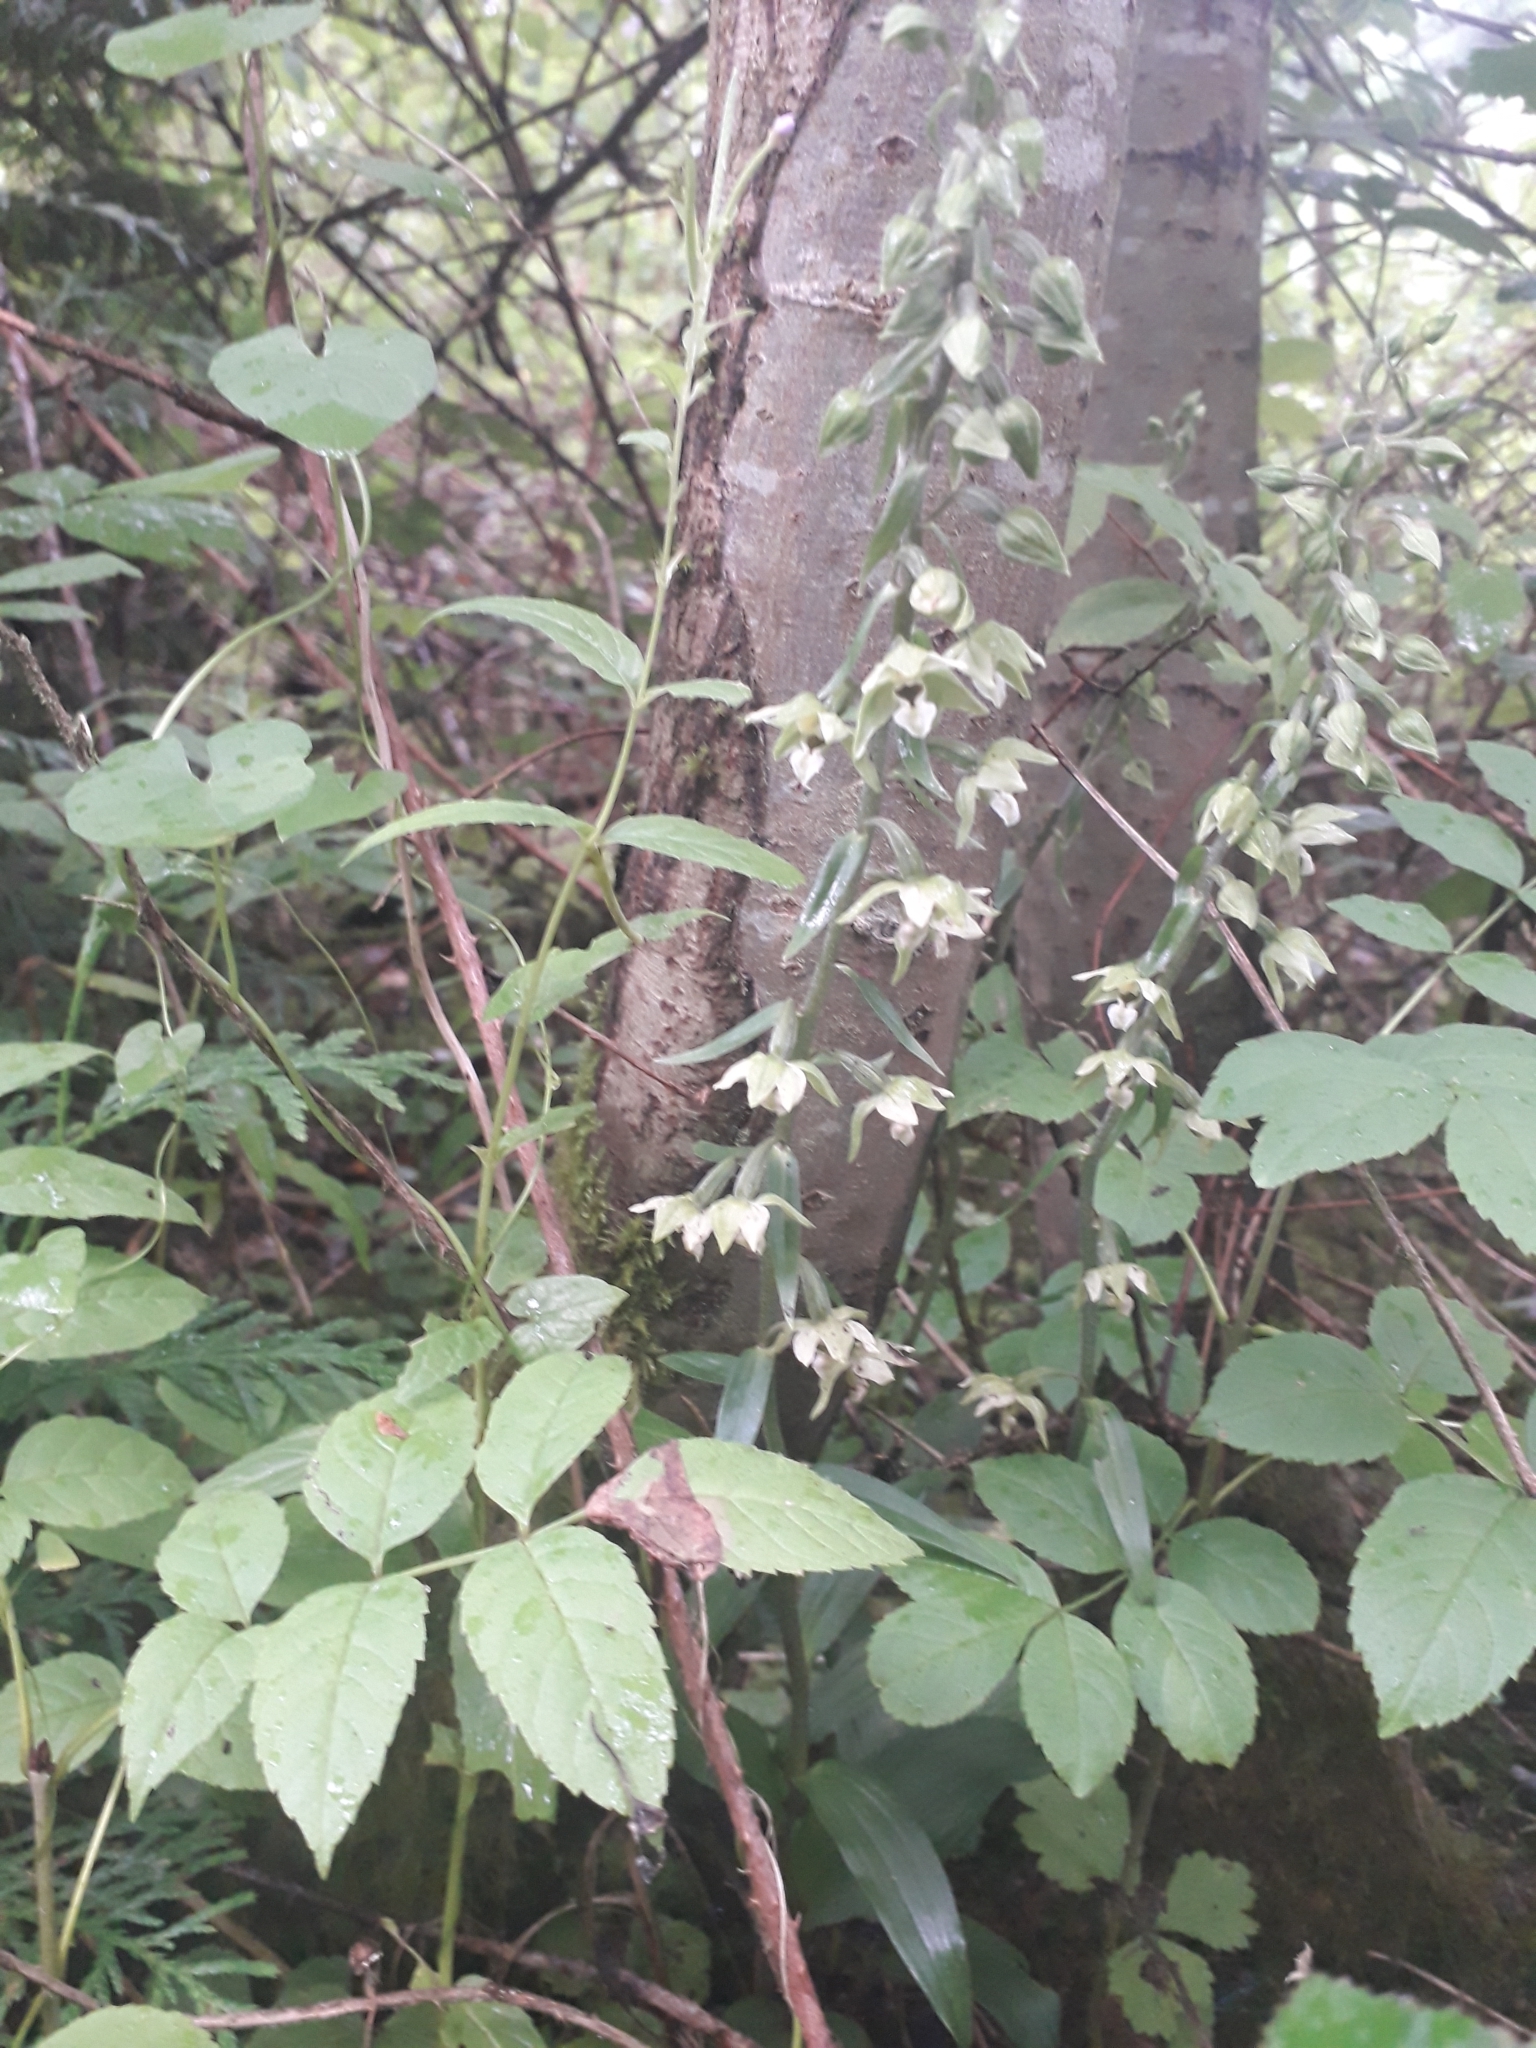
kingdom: Plantae
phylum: Tracheophyta
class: Liliopsida
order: Asparagales
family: Orchidaceae
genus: Epipactis
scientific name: Epipactis helleborine
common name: Broad-leaved helleborine
